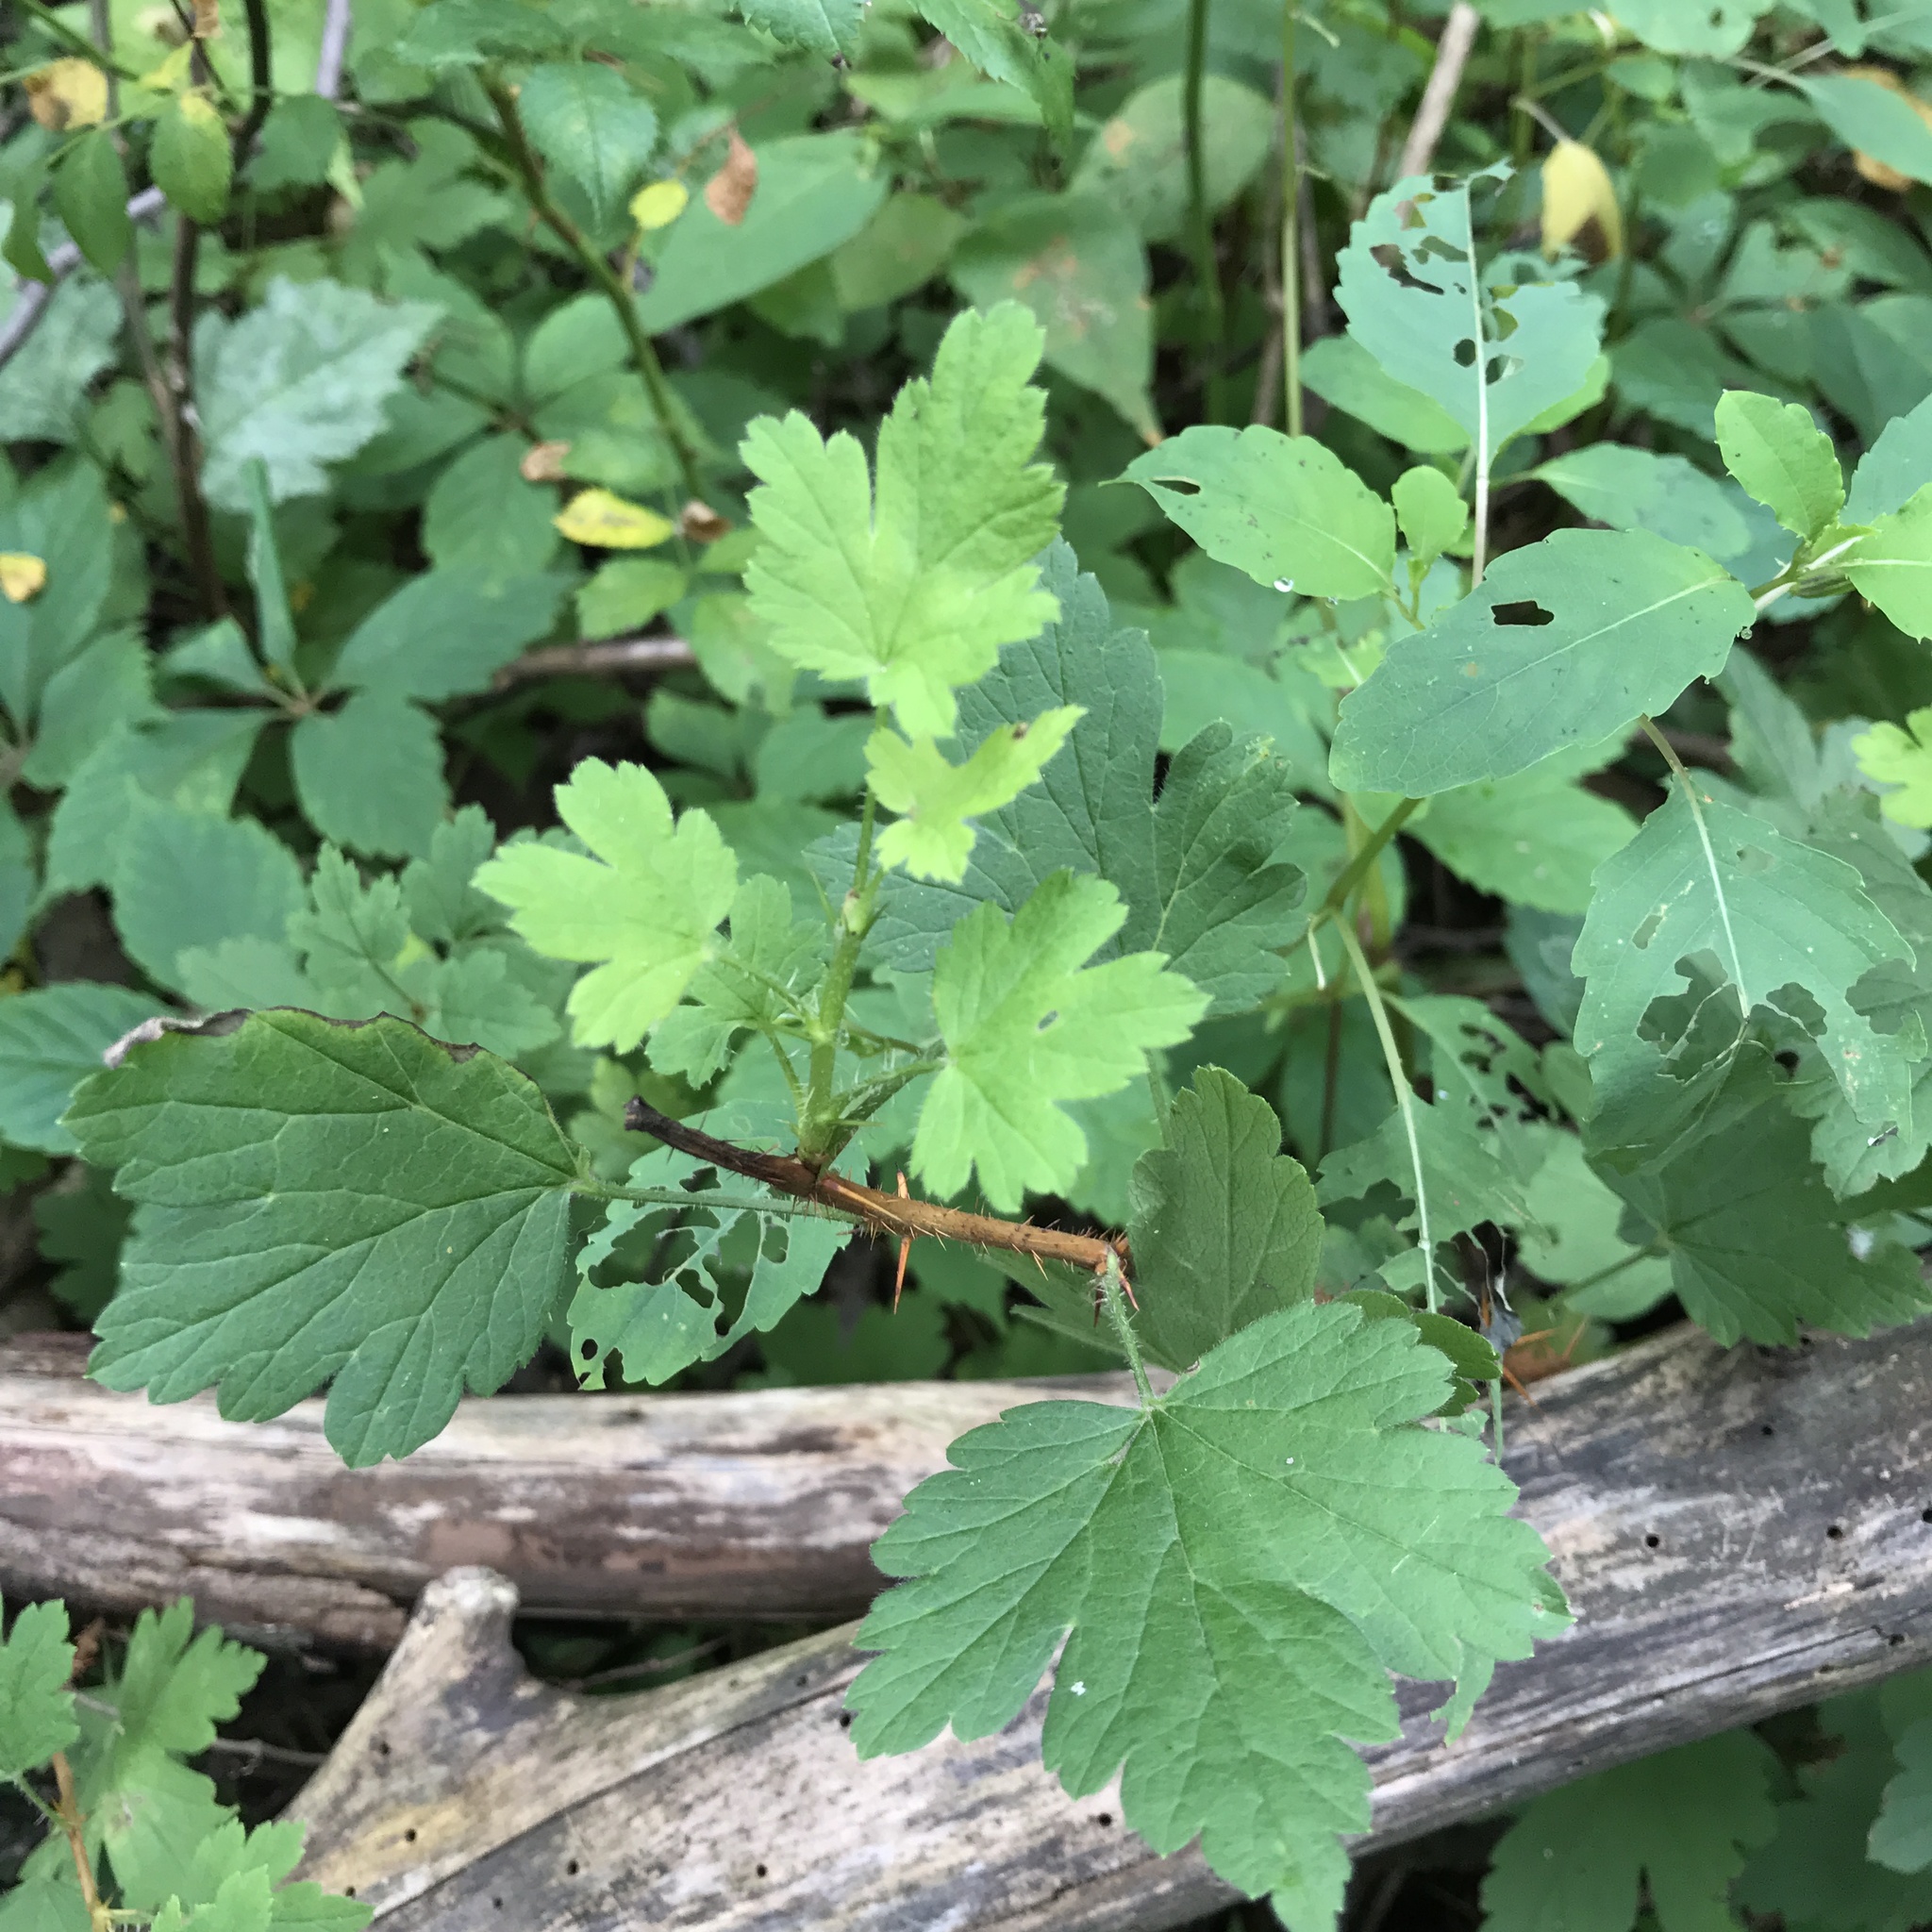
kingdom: Plantae
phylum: Tracheophyta
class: Magnoliopsida
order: Saxifragales
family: Grossulariaceae
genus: Ribes
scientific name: Ribes cynosbati
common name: American gooseberry
